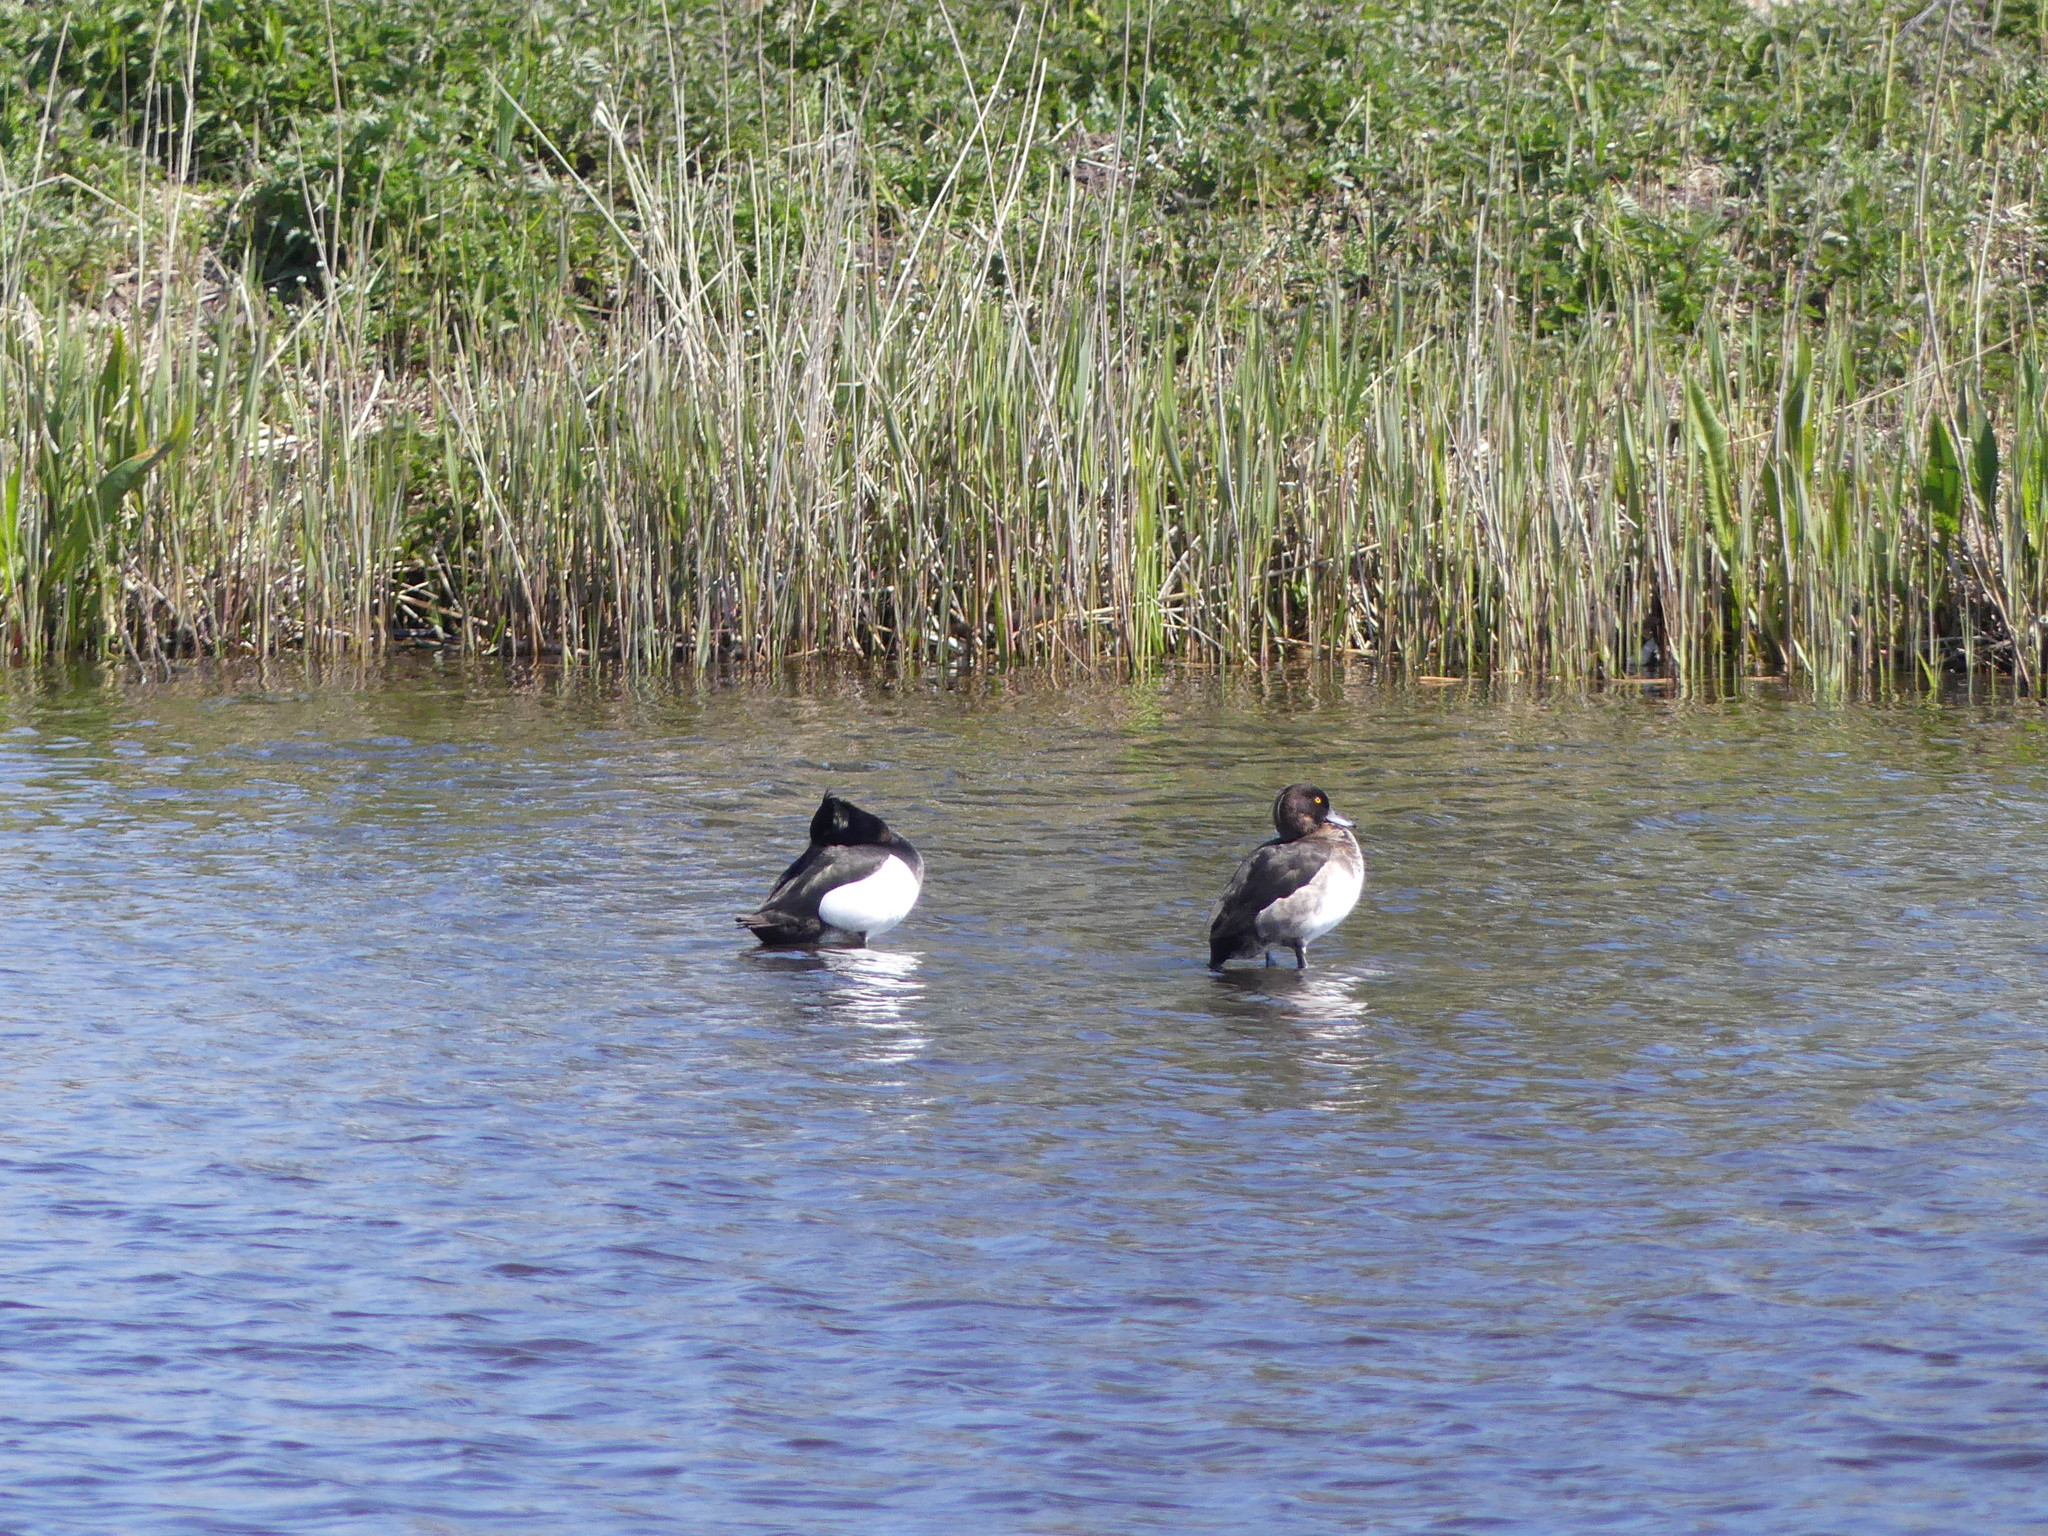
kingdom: Animalia
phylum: Chordata
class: Aves
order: Anseriformes
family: Anatidae
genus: Aythya
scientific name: Aythya fuligula
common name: Tufted duck
